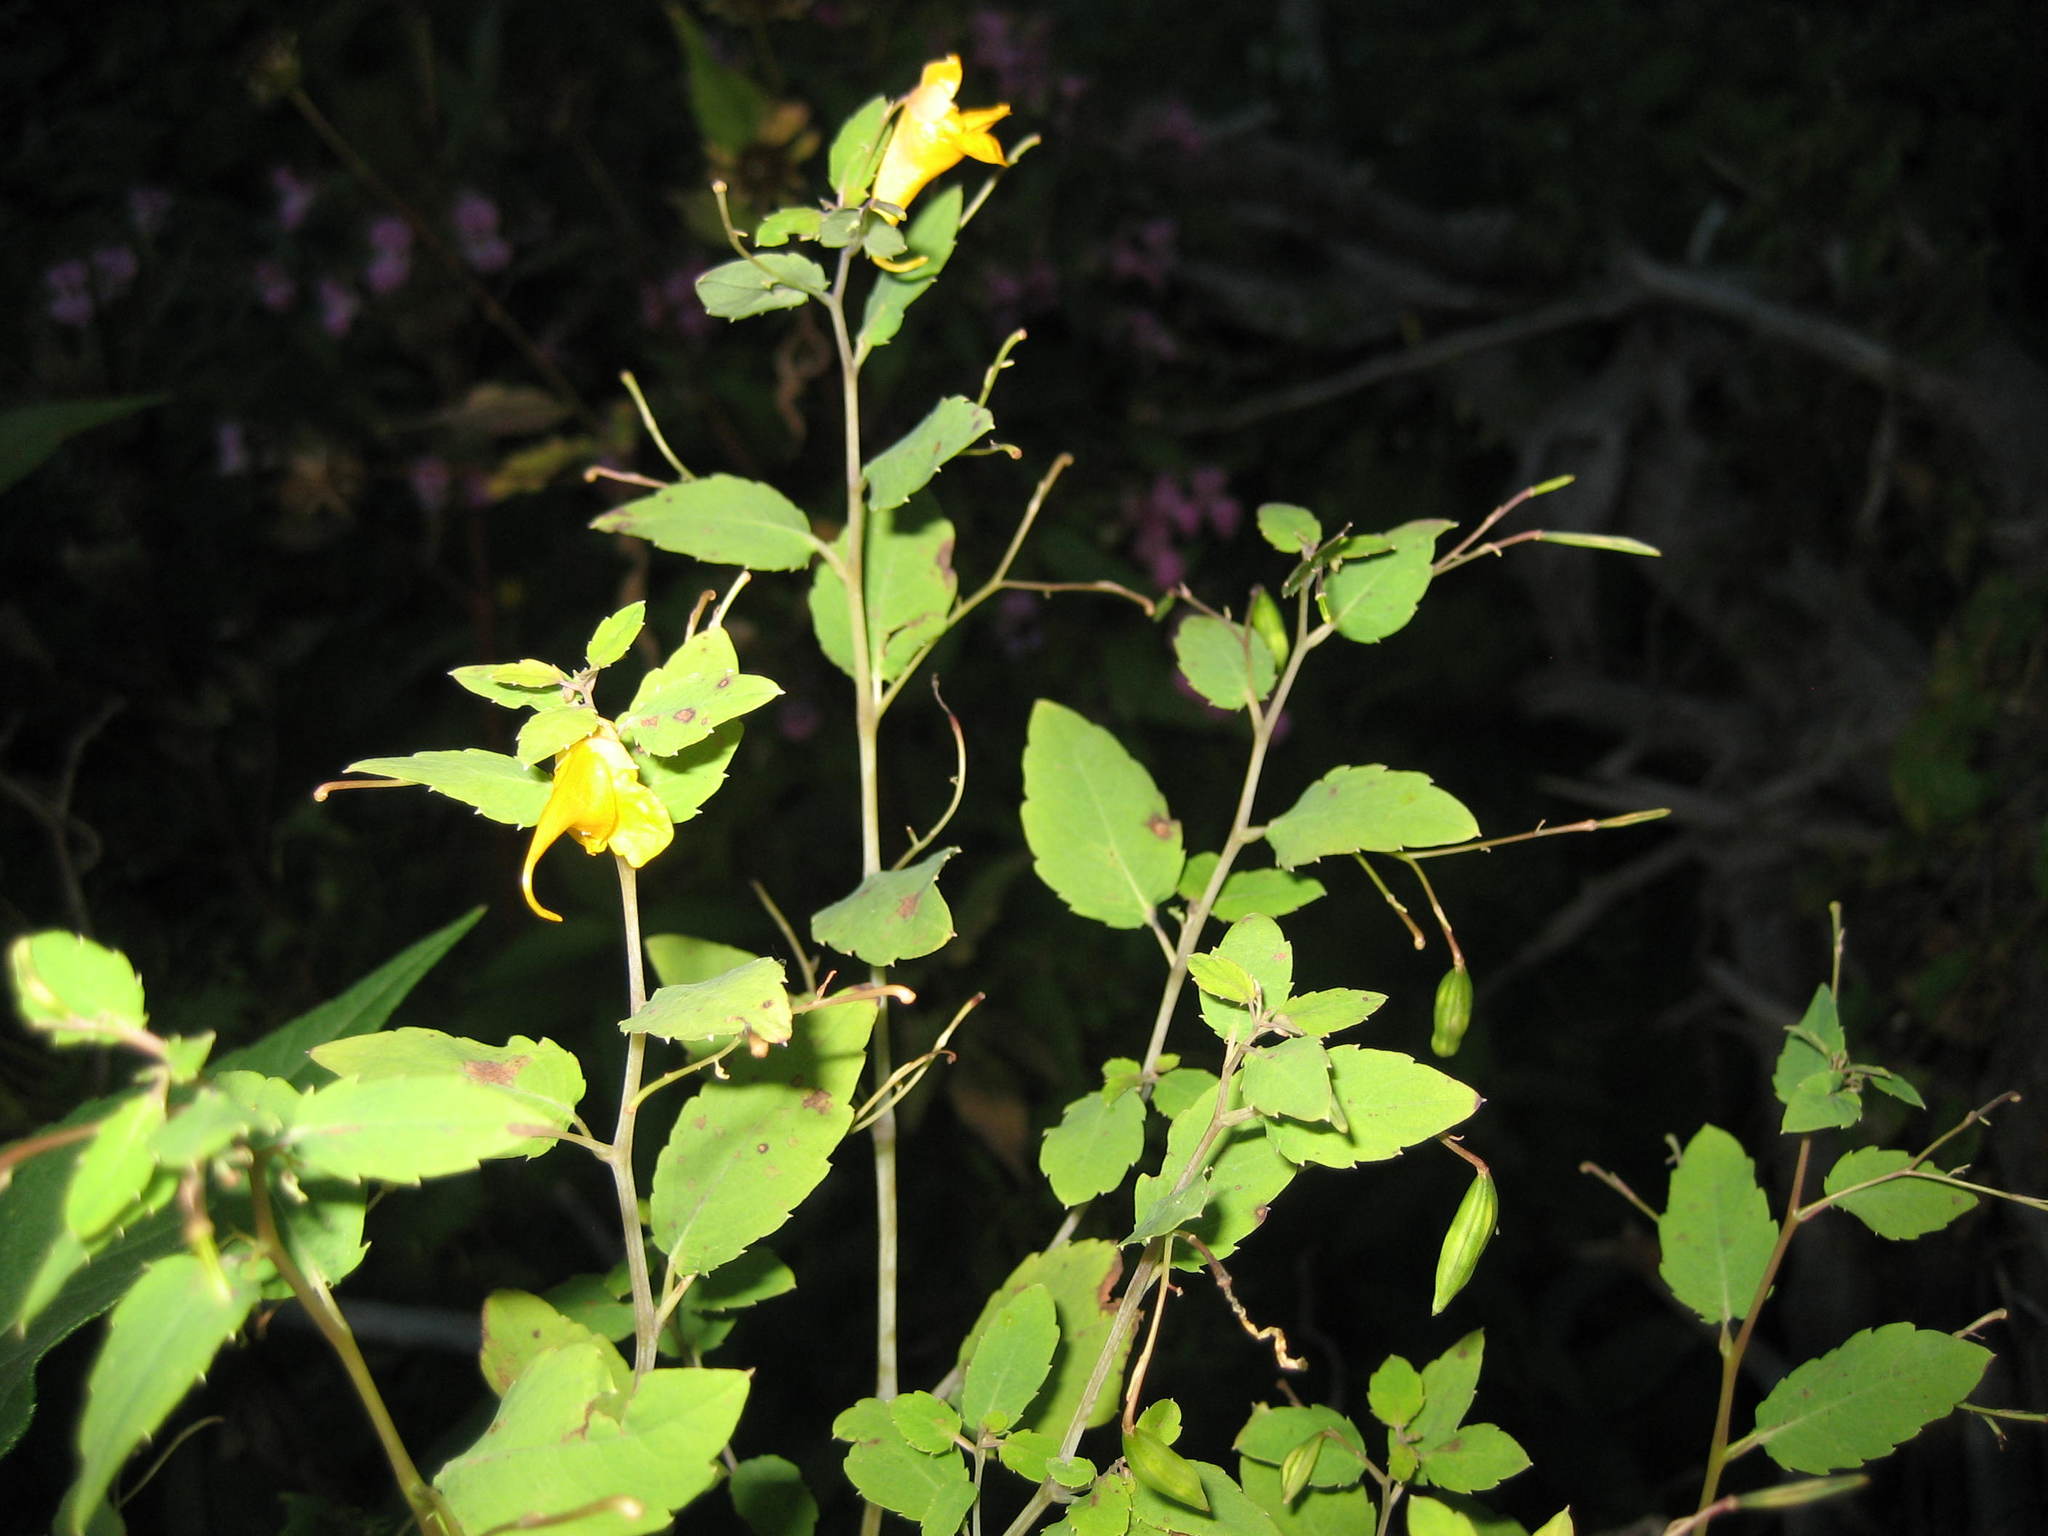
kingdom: Plantae
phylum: Tracheophyta
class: Magnoliopsida
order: Ericales
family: Balsaminaceae
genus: Impatiens
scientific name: Impatiens capensis
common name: Orange balsam
